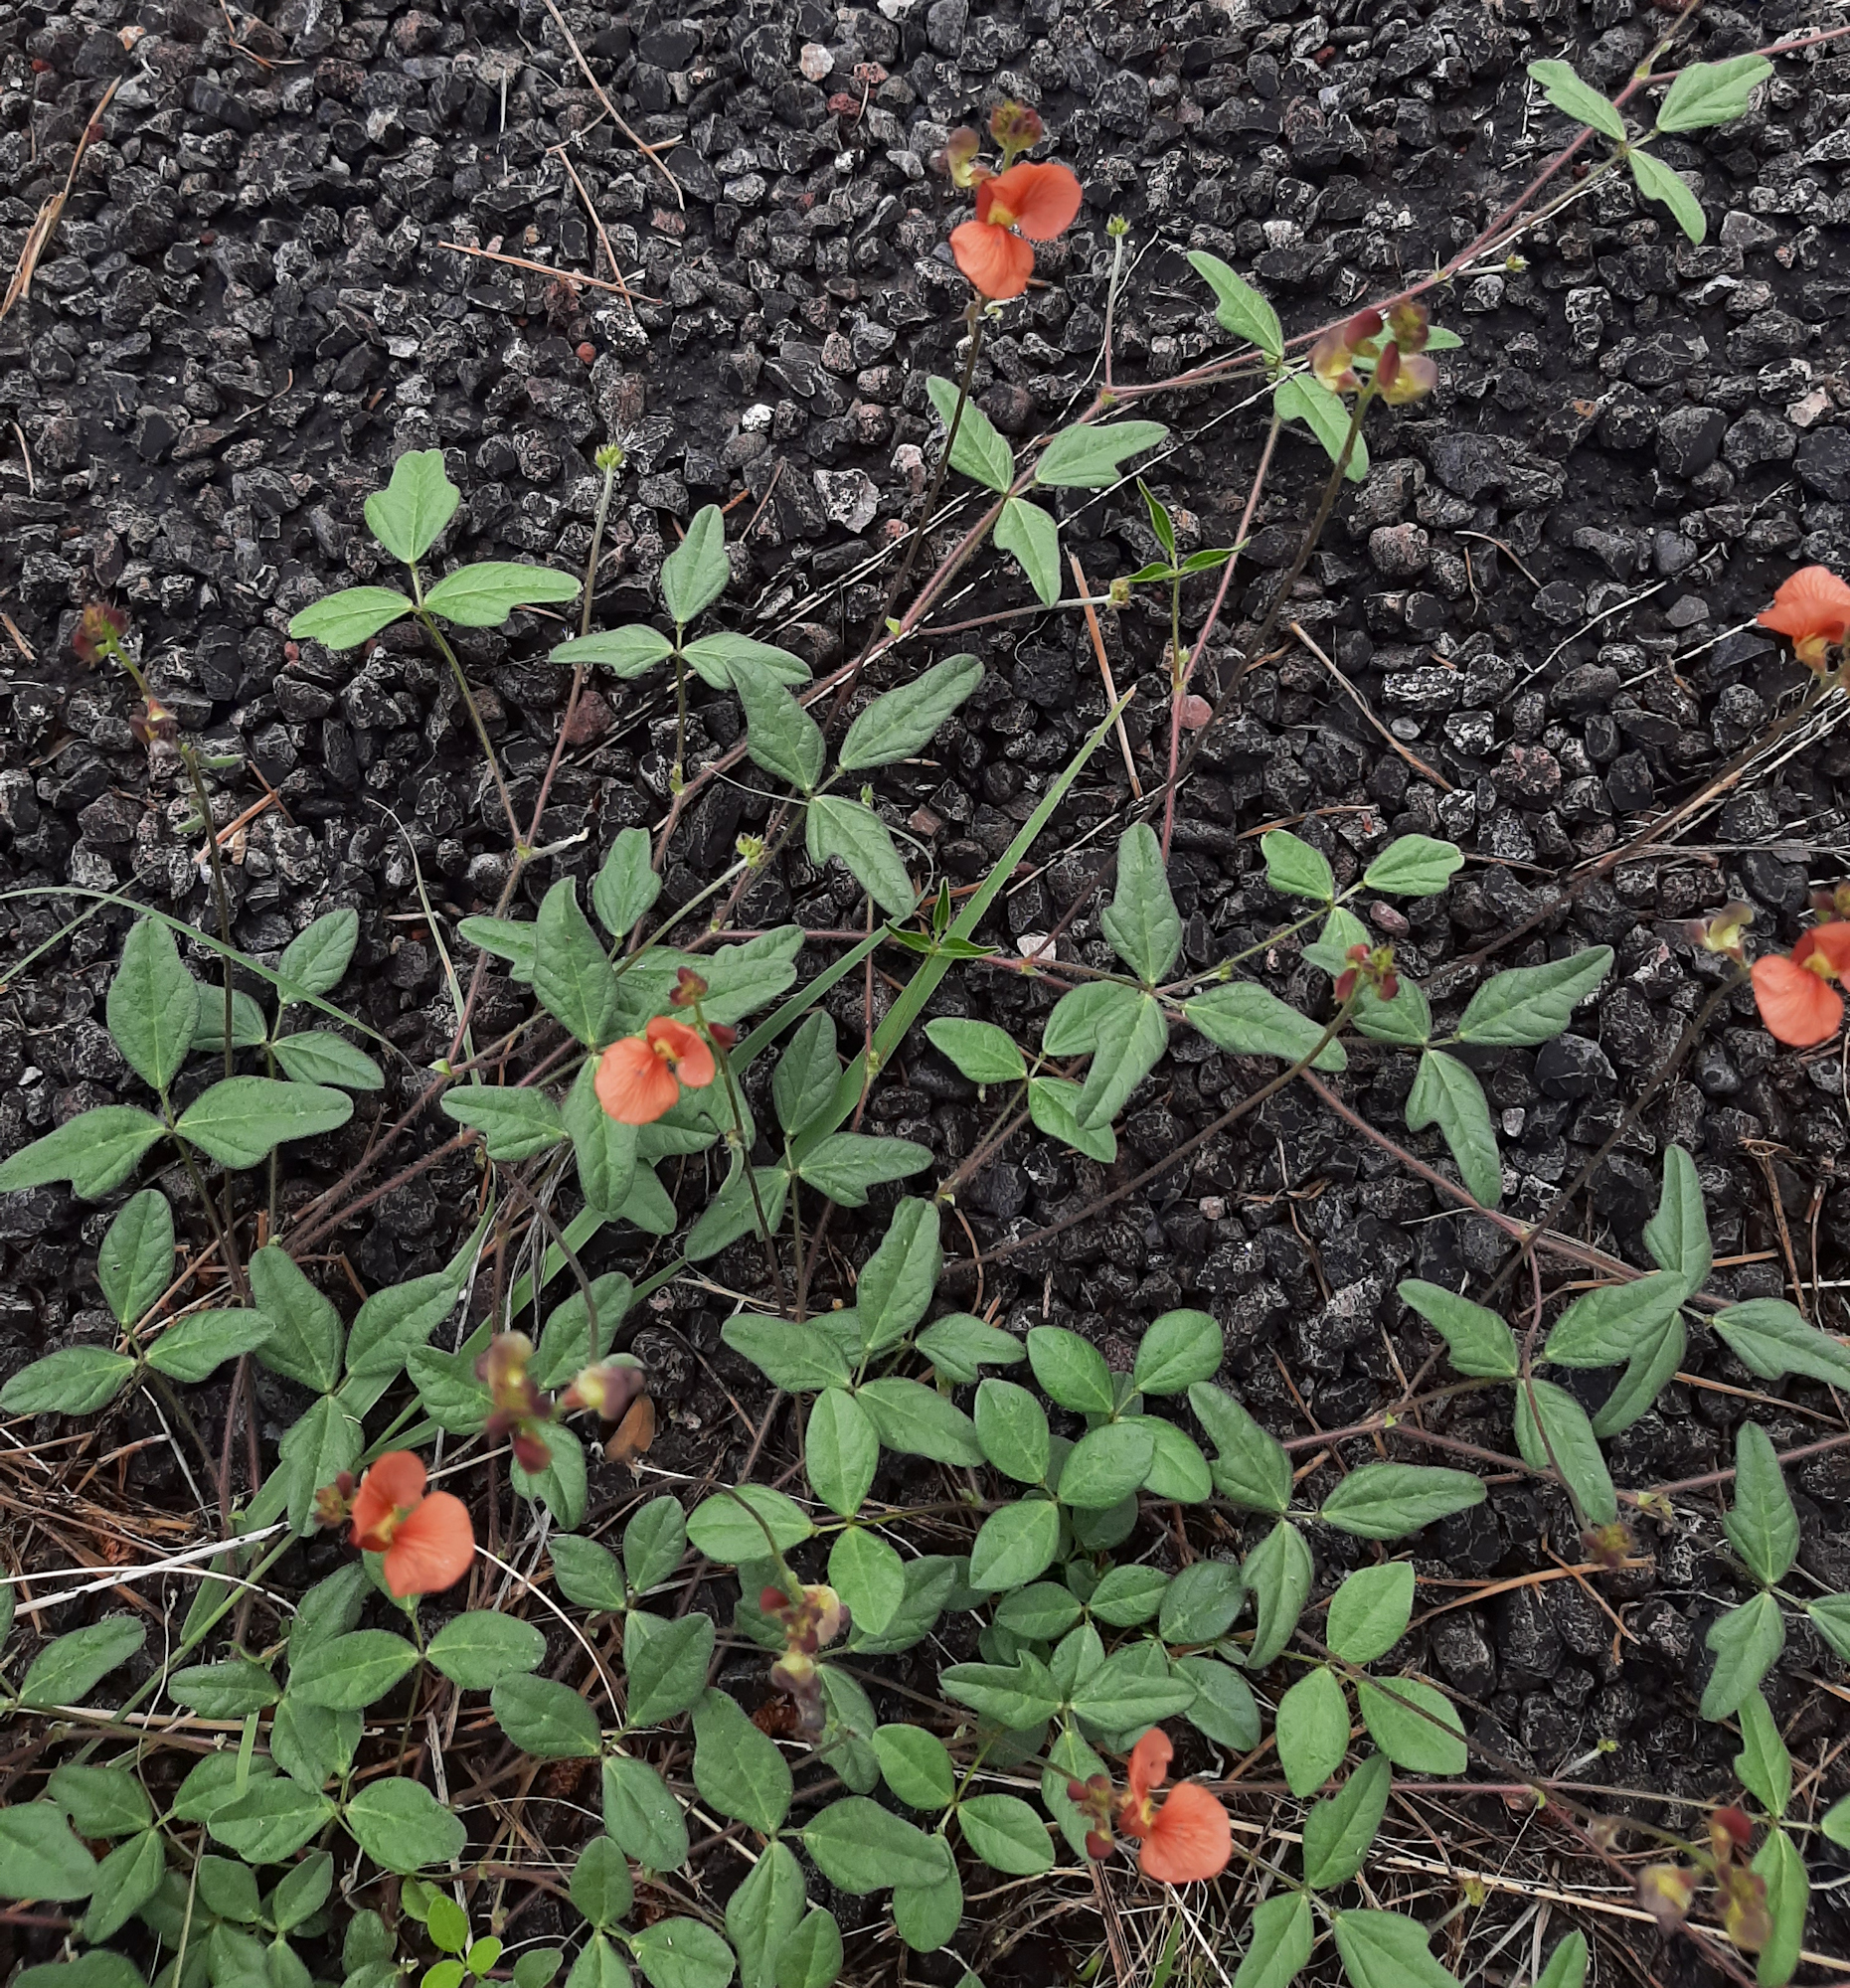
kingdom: Plantae
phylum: Tracheophyta
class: Magnoliopsida
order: Fabales
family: Fabaceae
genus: Macroptilium
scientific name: Macroptilium gibbosifolium
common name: Variableleaf bushbean
